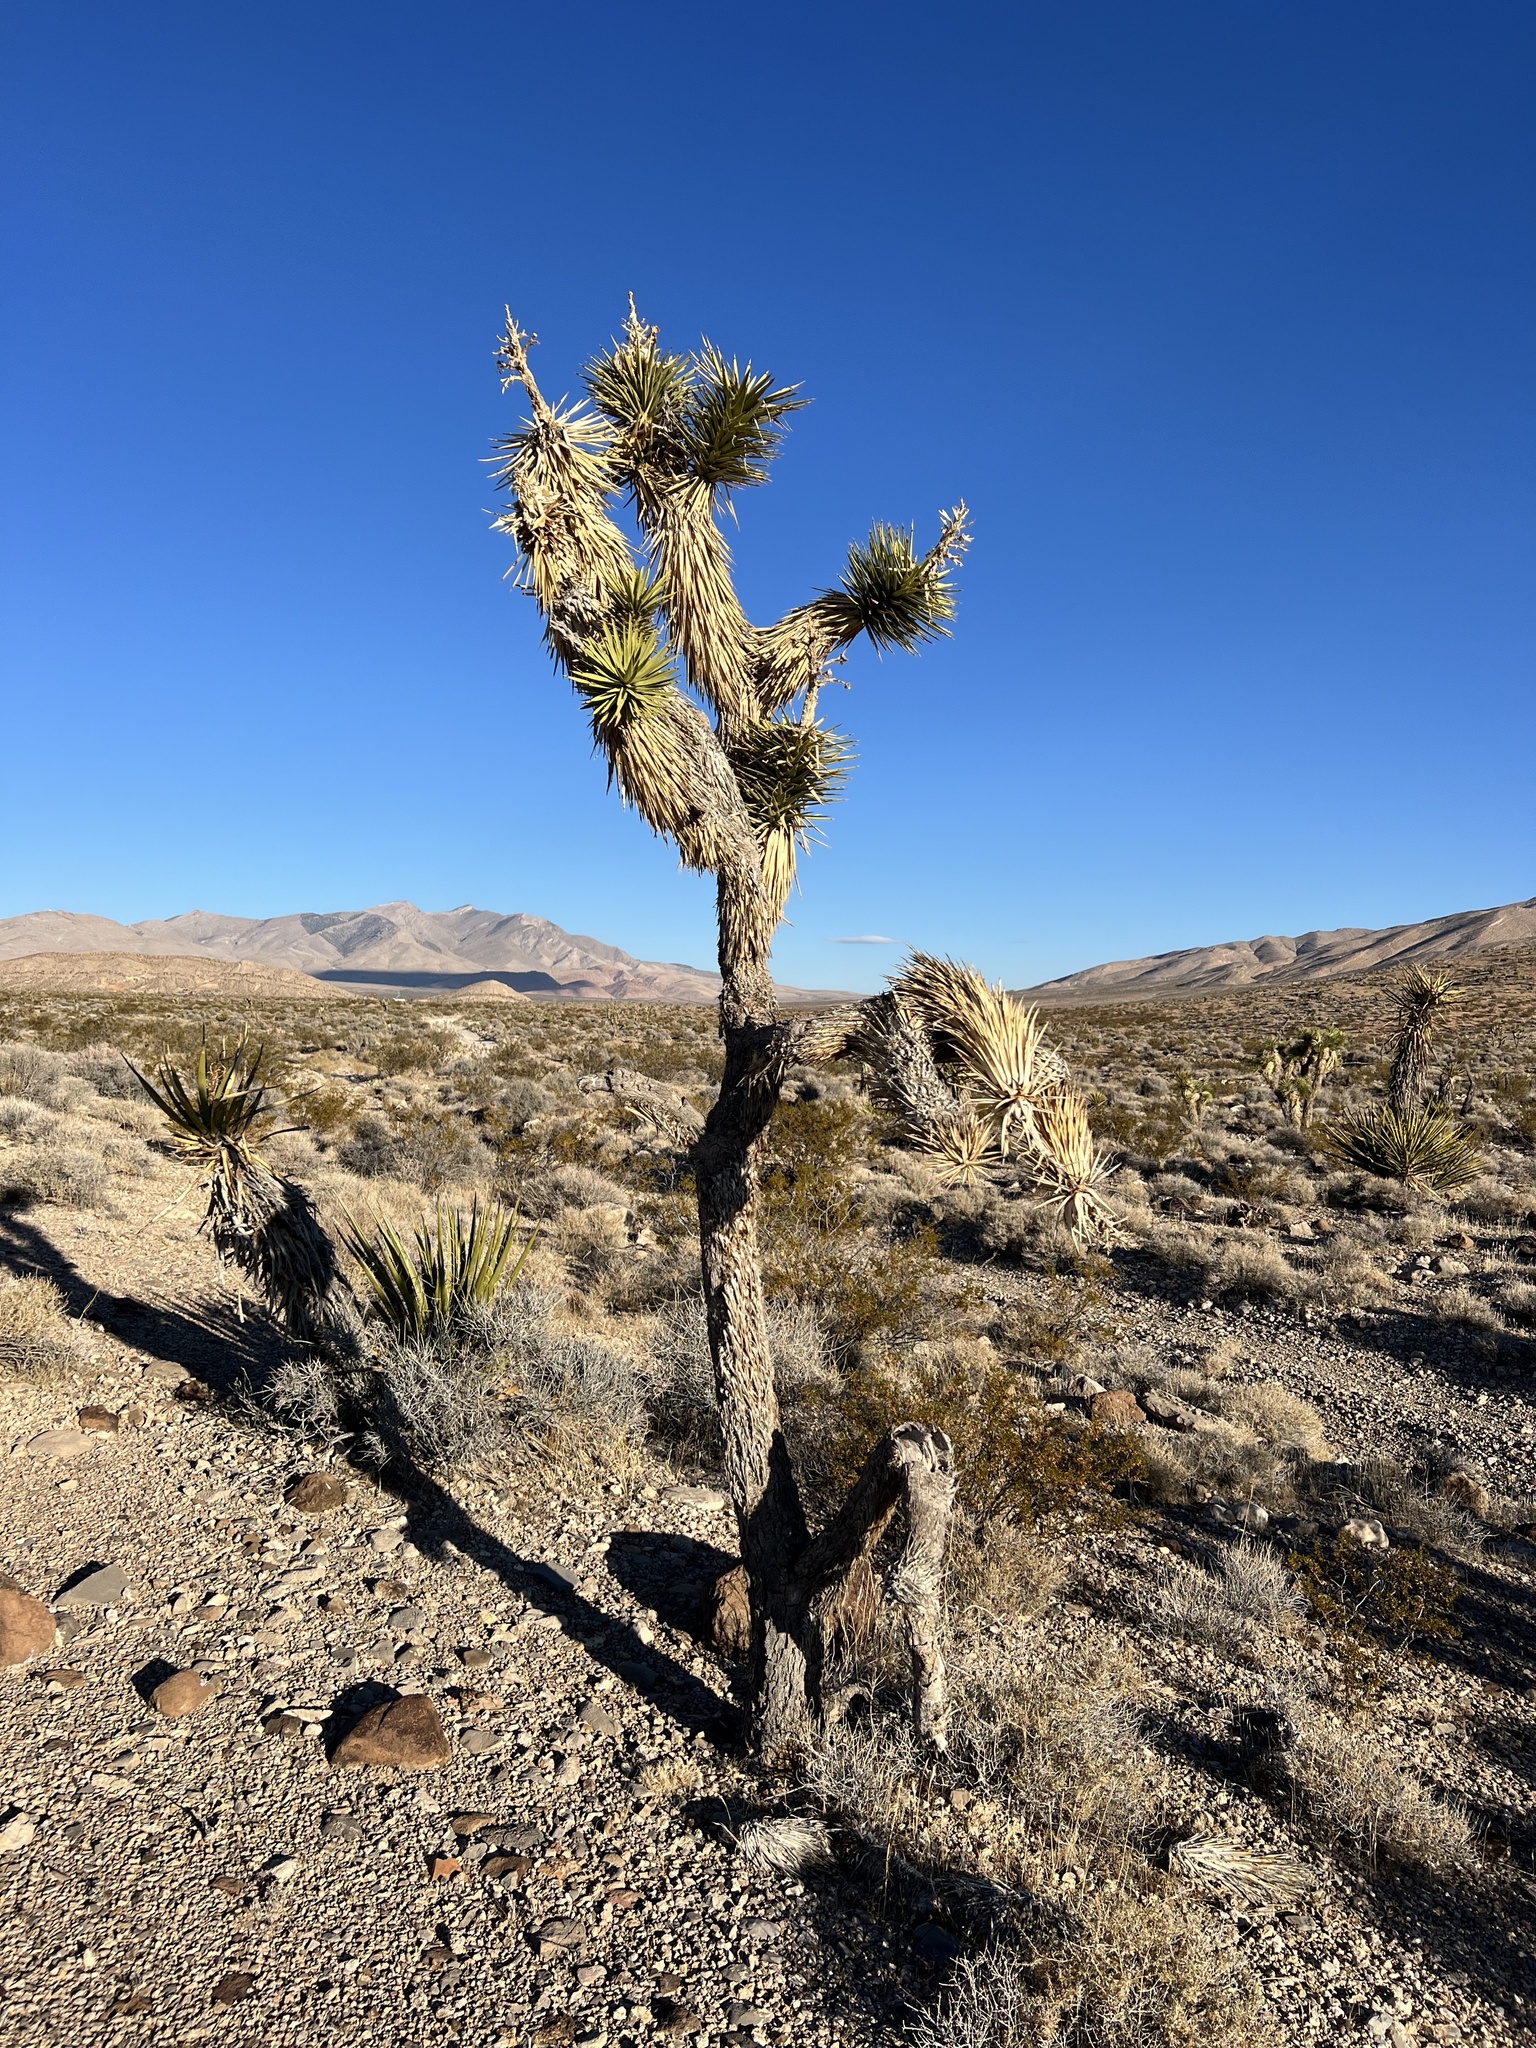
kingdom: Plantae
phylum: Tracheophyta
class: Liliopsida
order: Asparagales
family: Asparagaceae
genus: Yucca
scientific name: Yucca brevifolia
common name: Joshua tree
